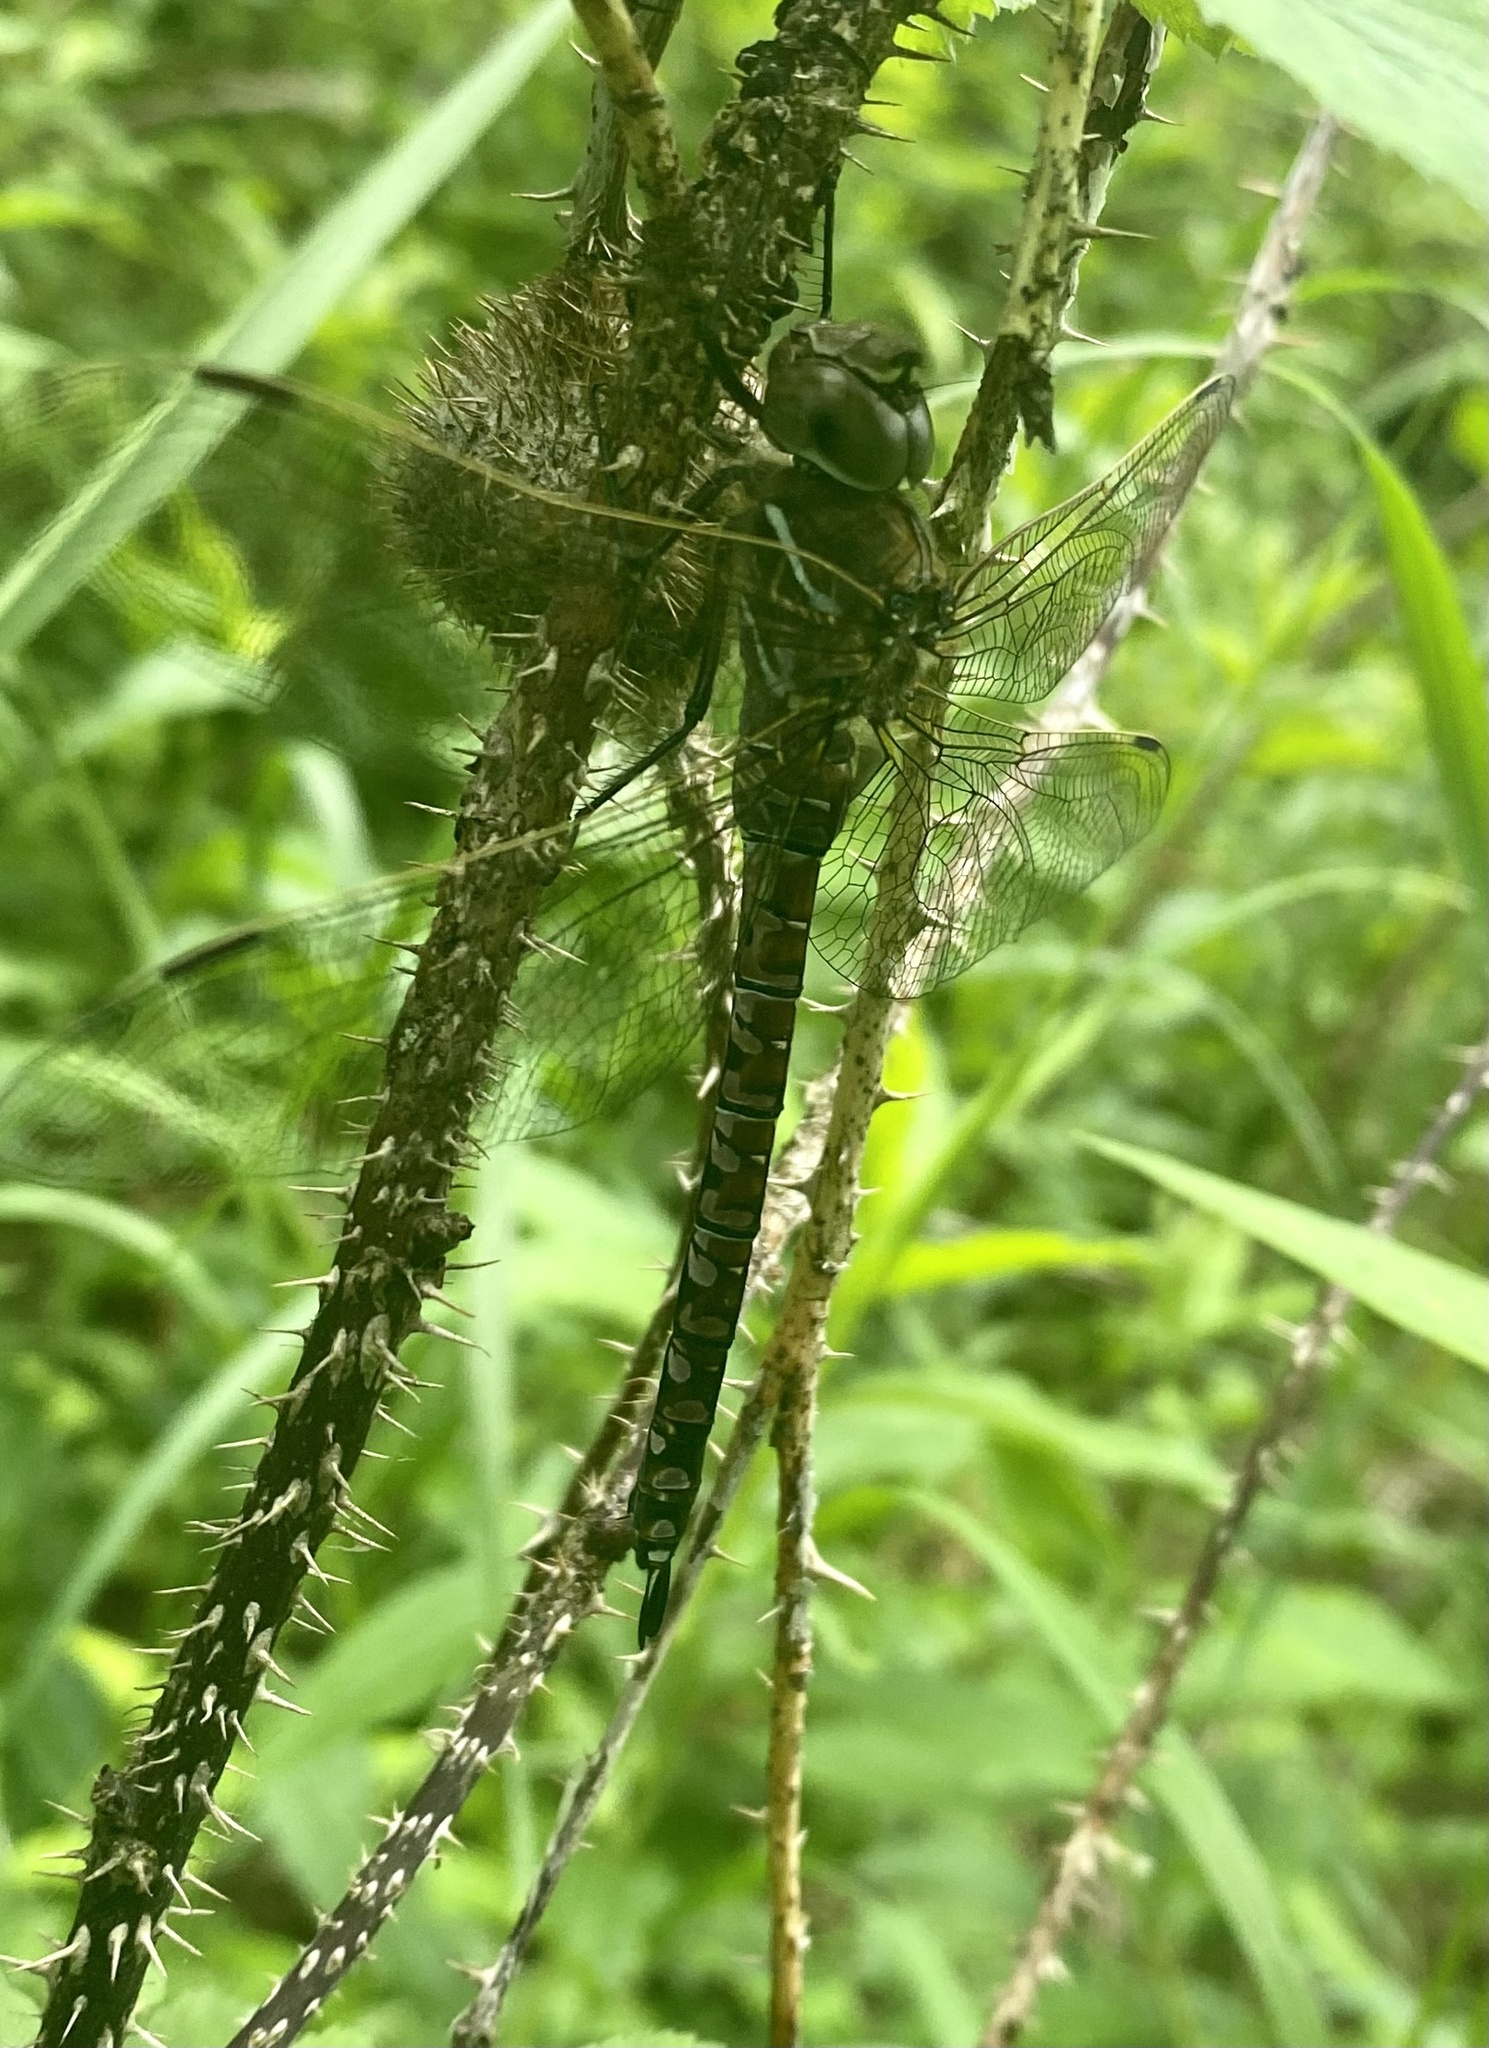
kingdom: Animalia
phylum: Arthropoda
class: Insecta
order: Odonata
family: Aeshnidae
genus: Aeshna
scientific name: Aeshna interrupta
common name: Variable darner
